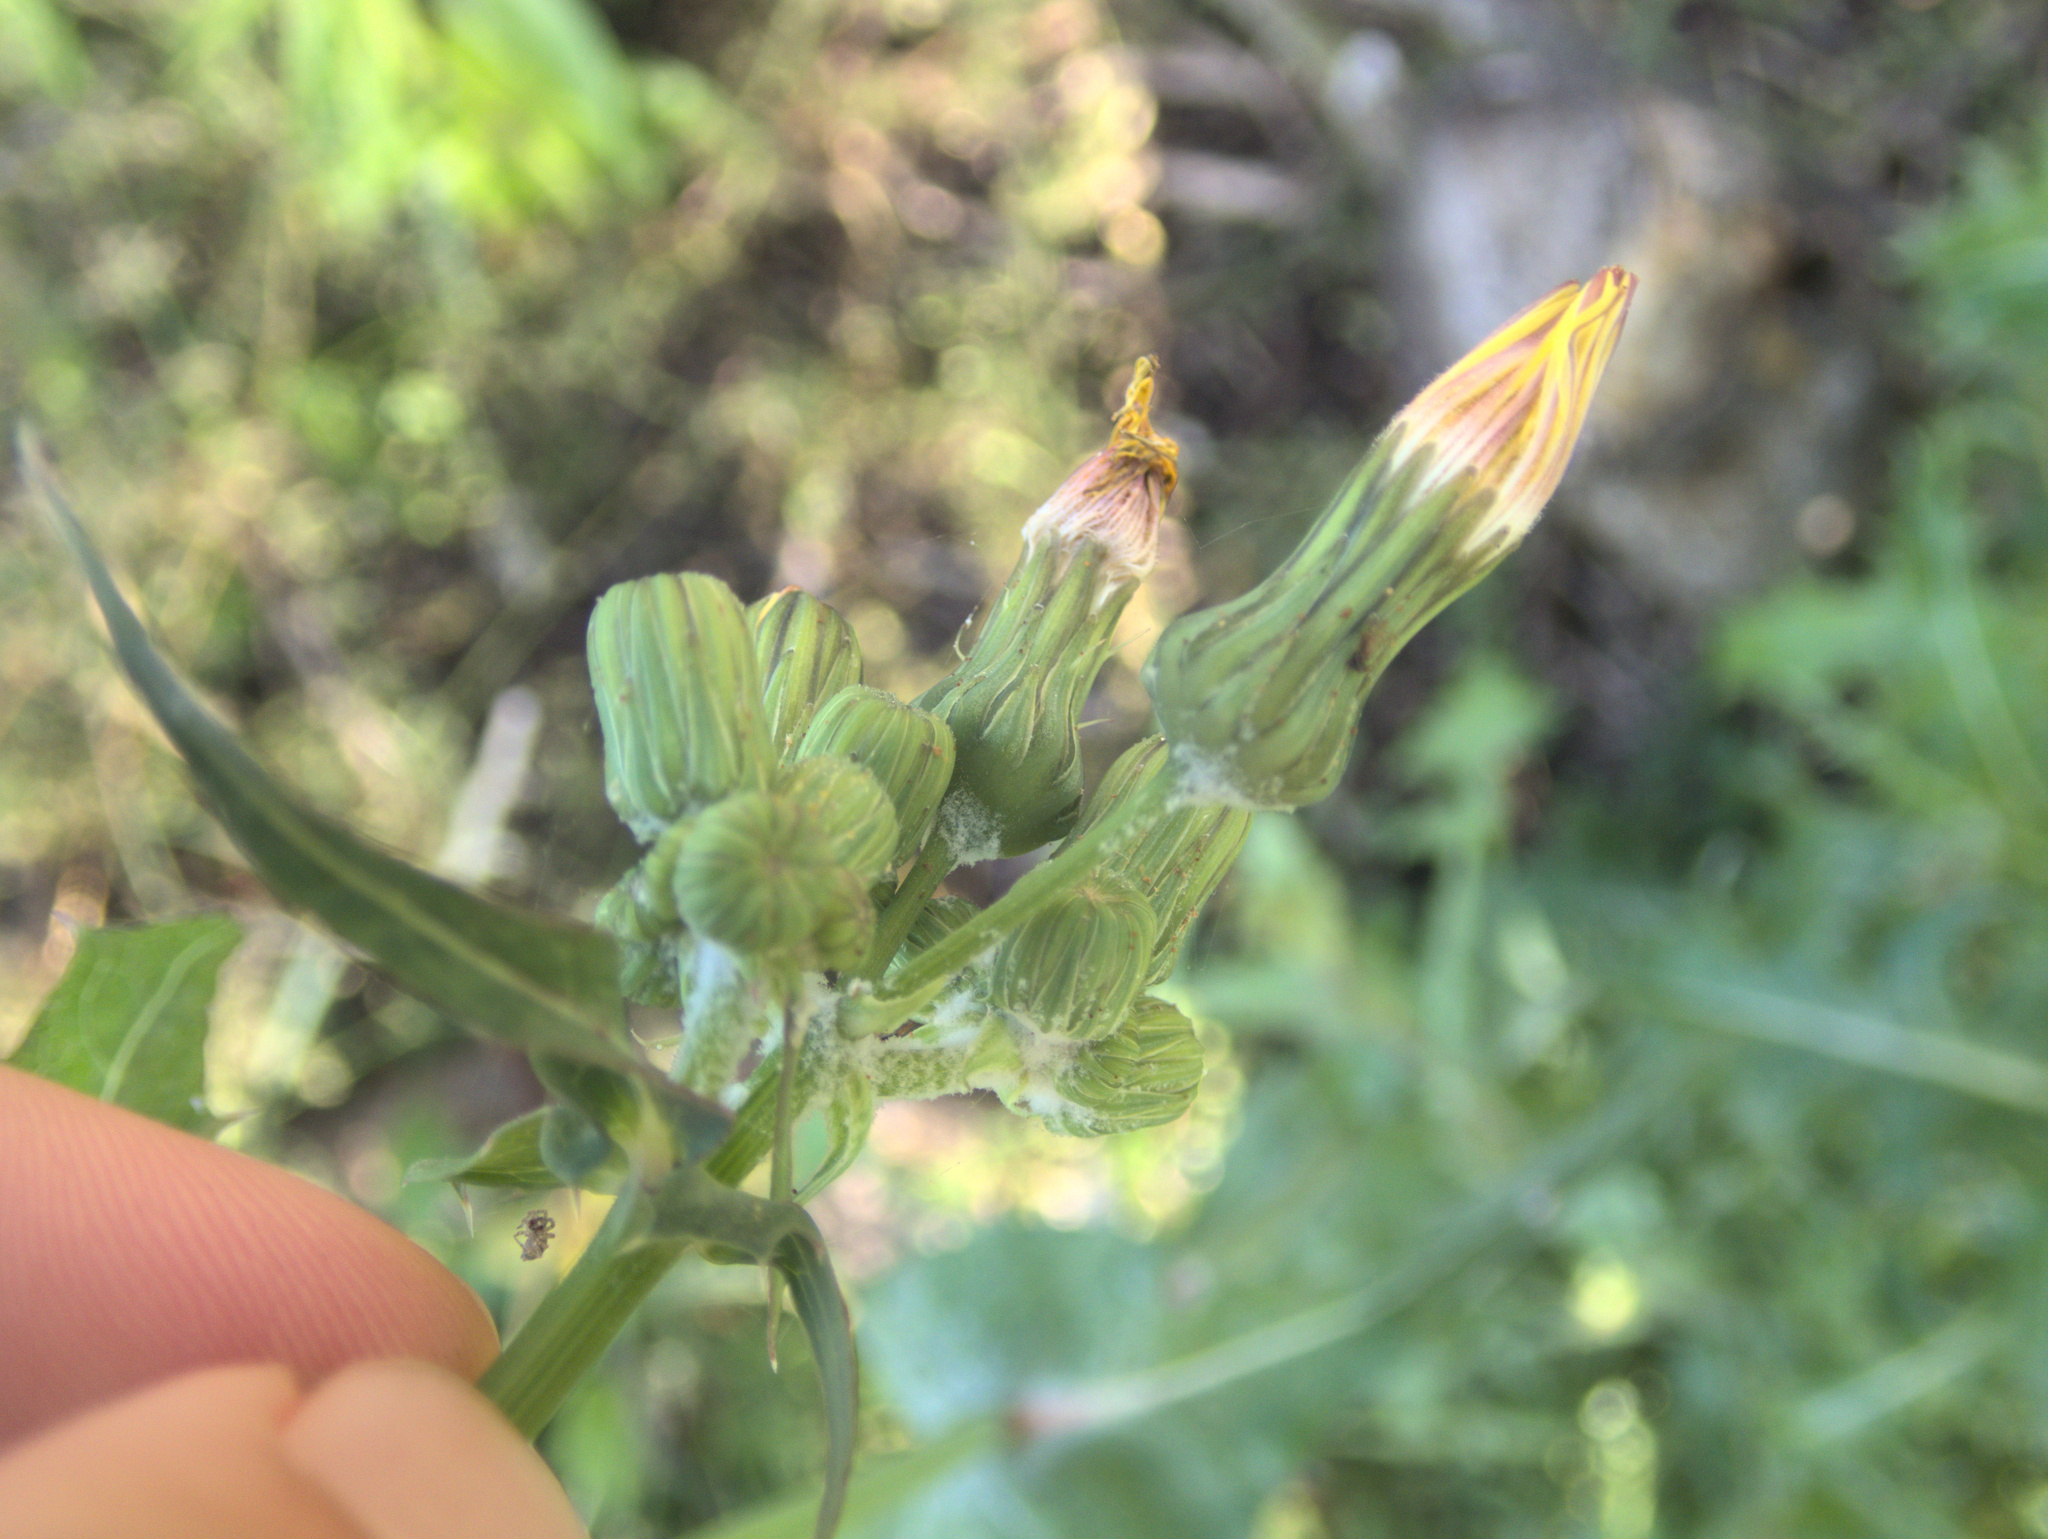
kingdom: Plantae
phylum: Tracheophyta
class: Magnoliopsida
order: Asterales
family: Asteraceae
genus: Sonchus
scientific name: Sonchus oleraceus
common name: Common sowthistle
